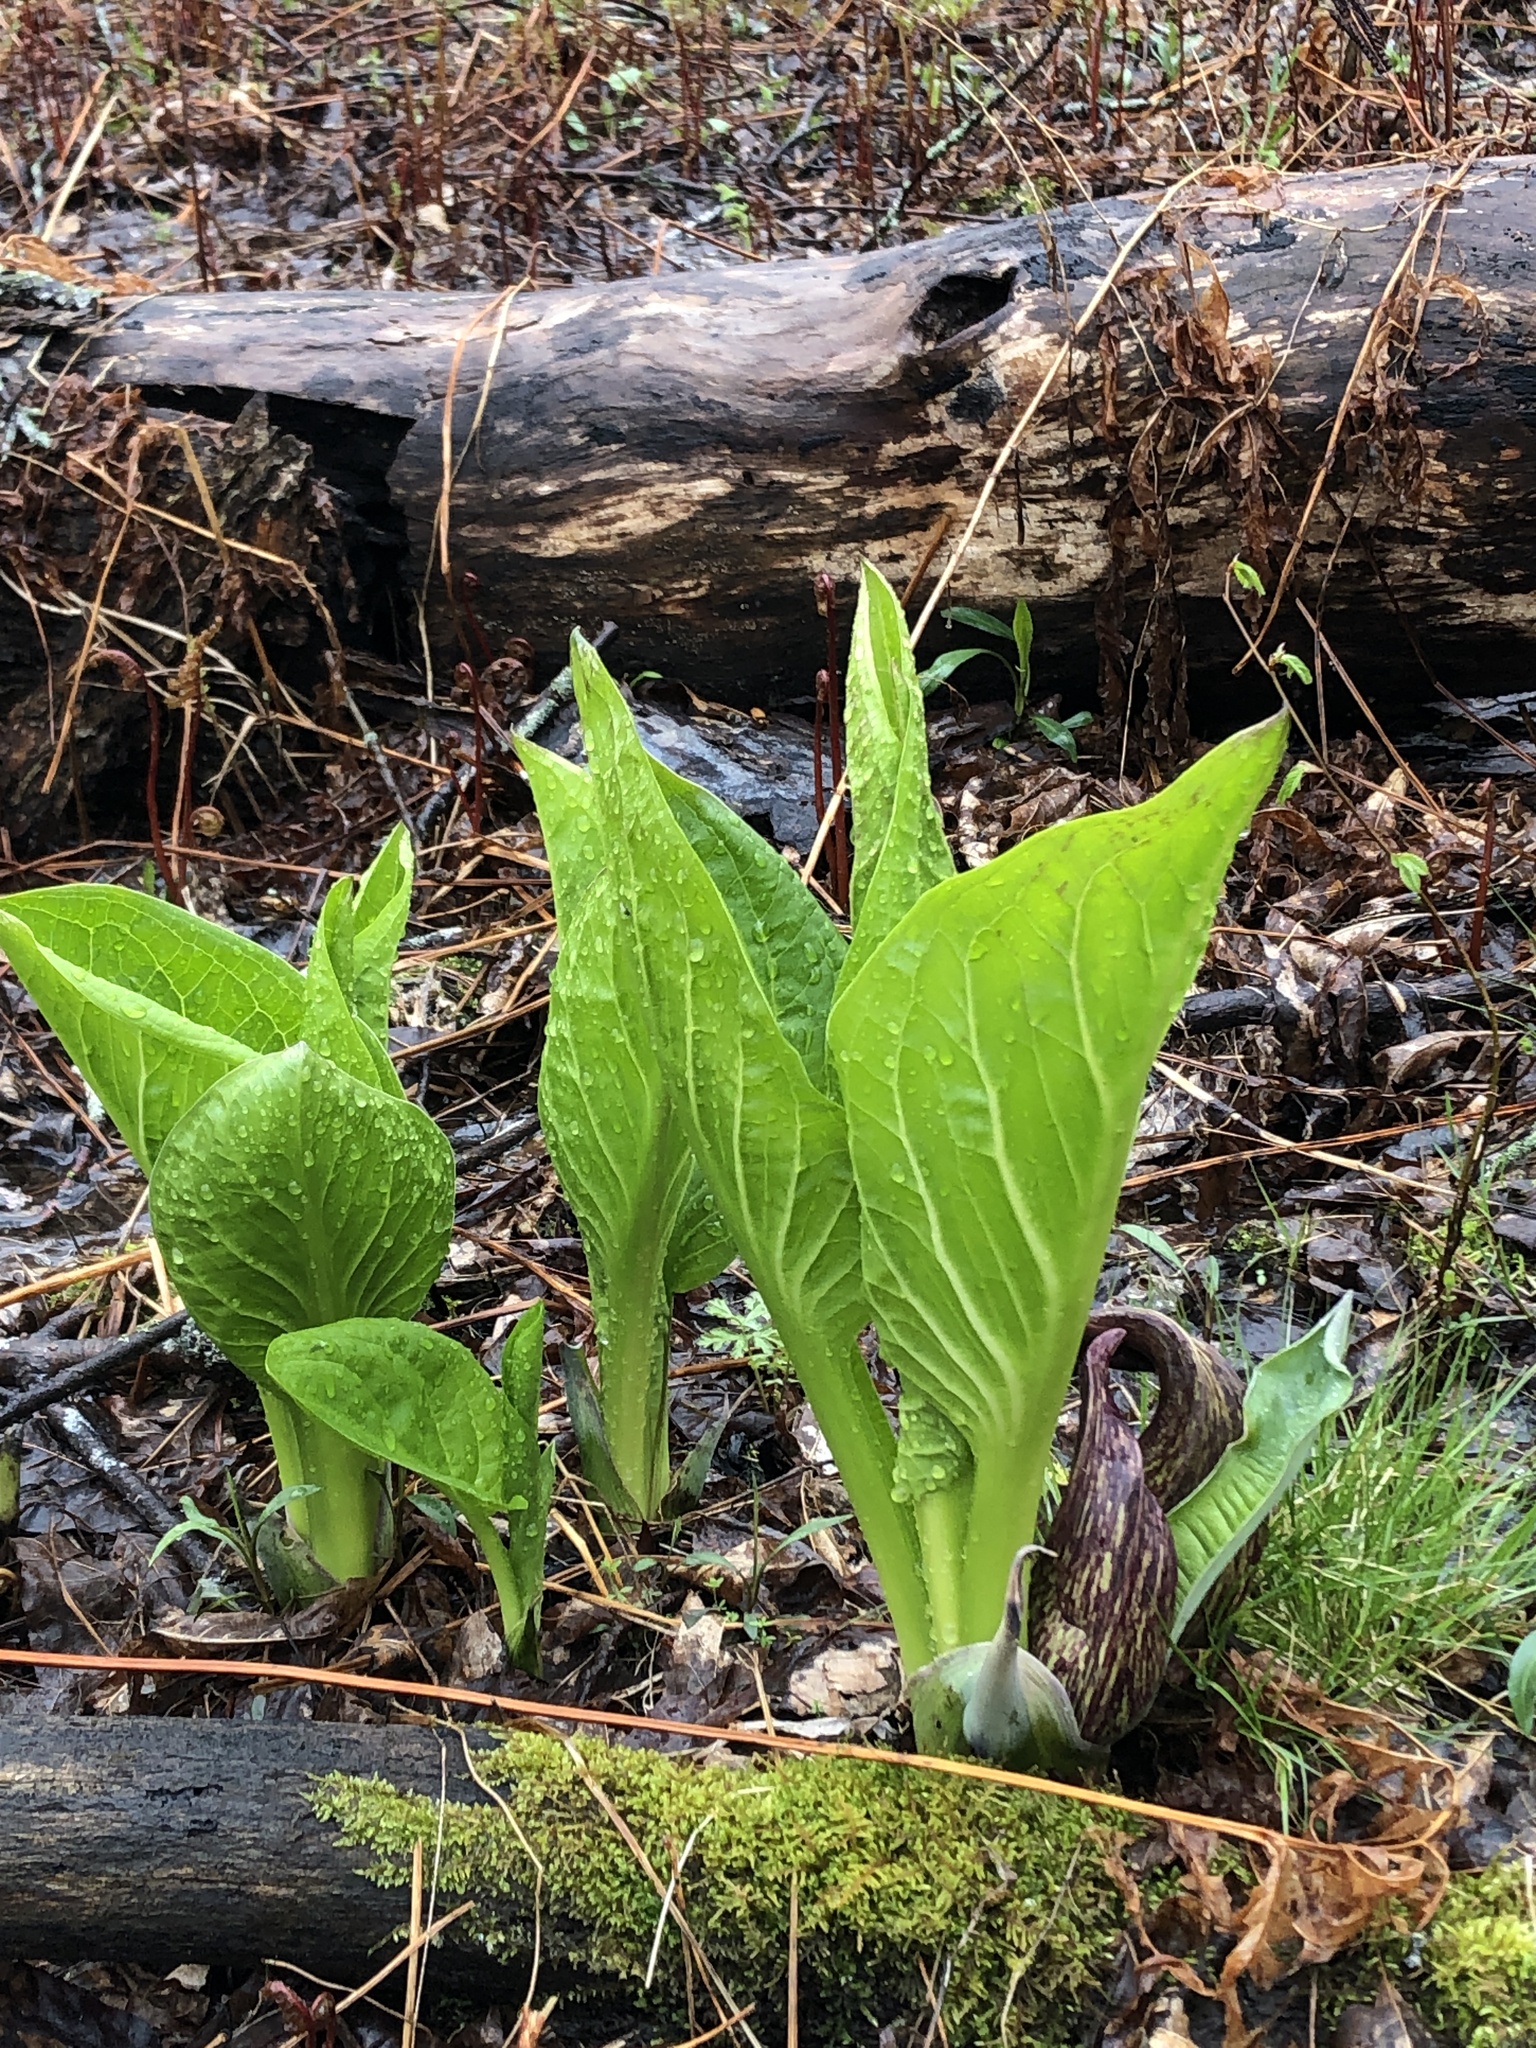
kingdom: Plantae
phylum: Tracheophyta
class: Liliopsida
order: Alismatales
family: Araceae
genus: Symplocarpus
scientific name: Symplocarpus foetidus
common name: Eastern skunk cabbage
